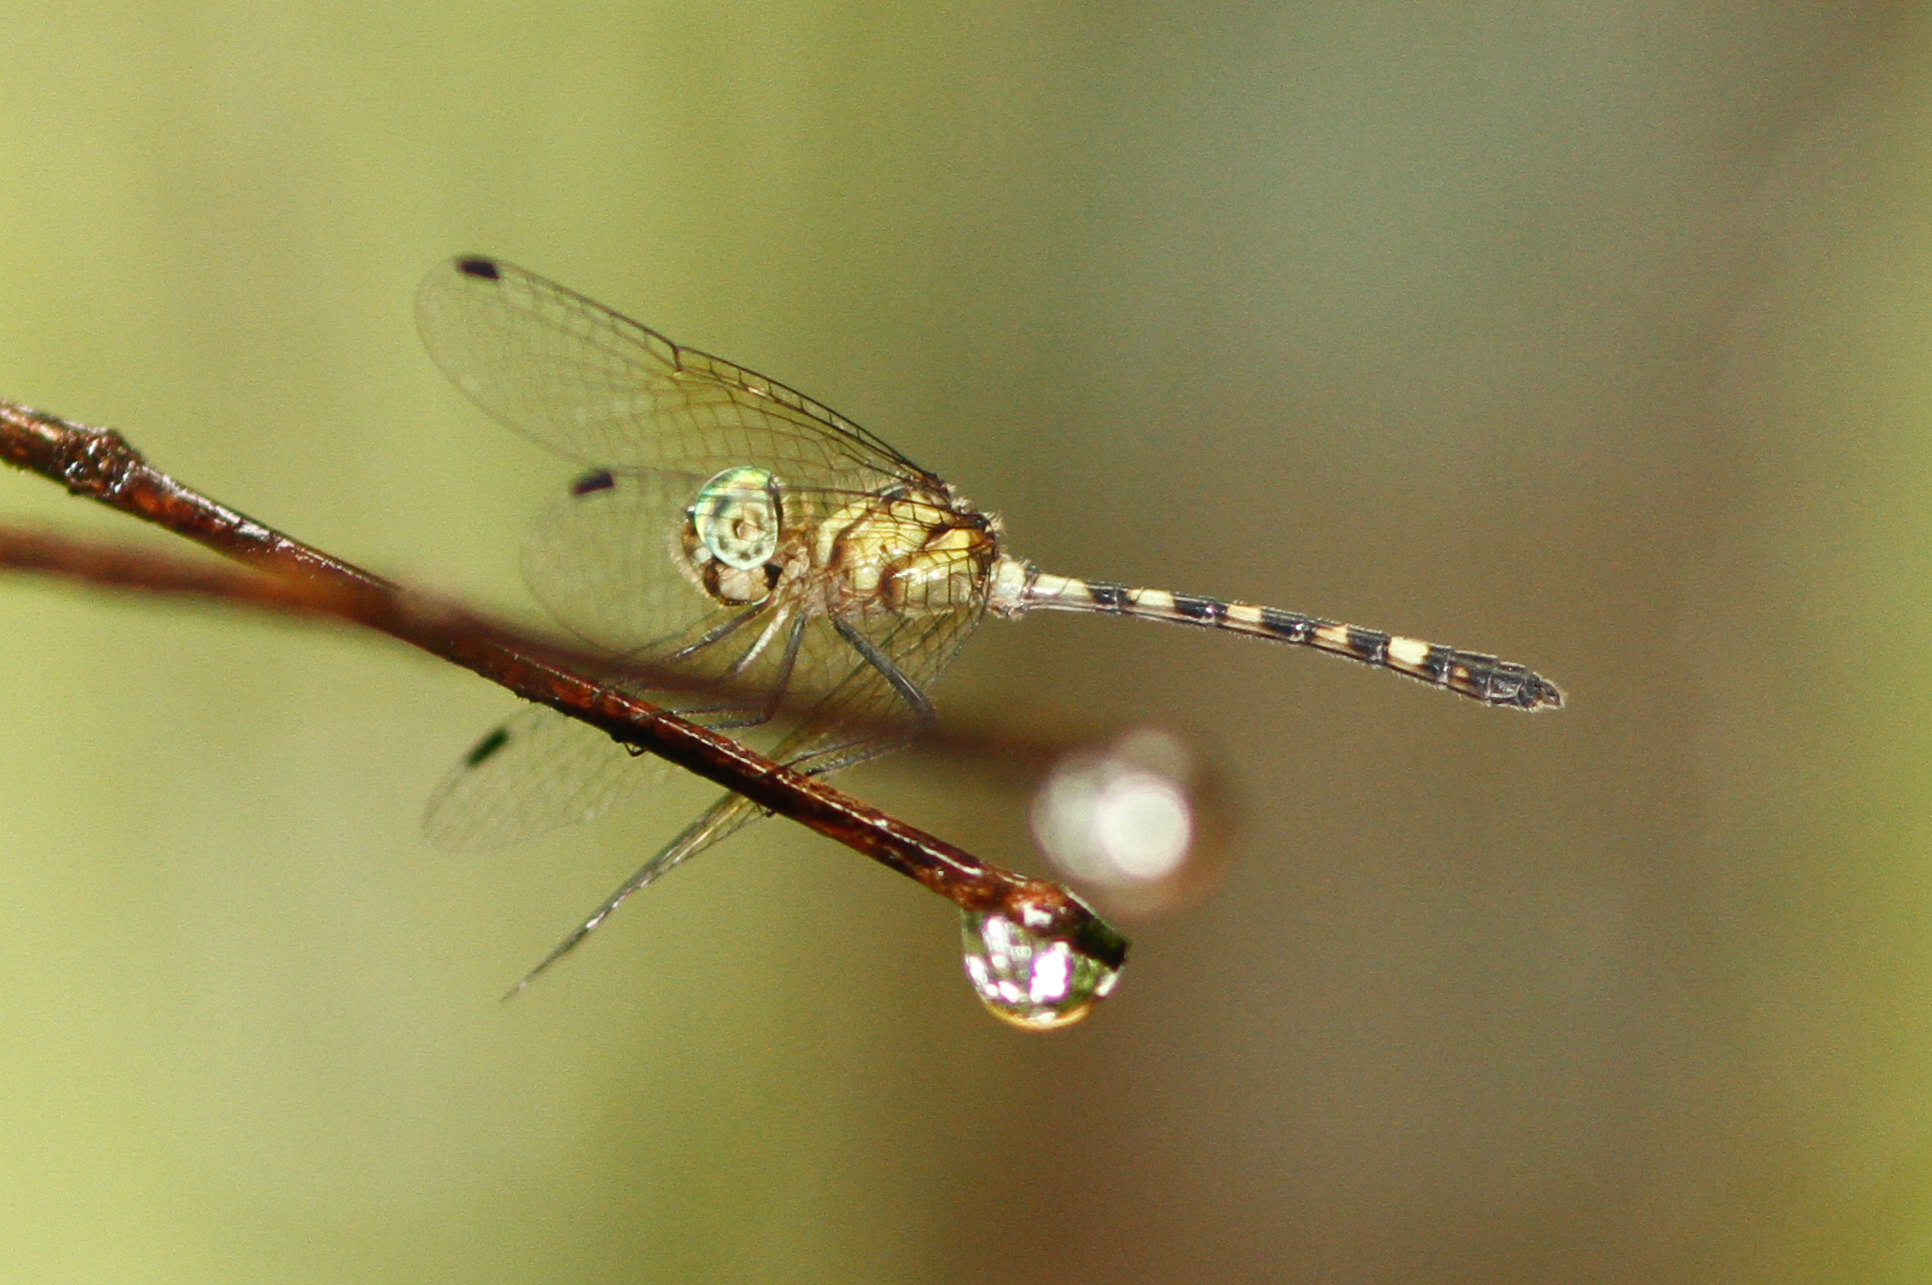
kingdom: Animalia
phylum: Arthropoda
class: Insecta
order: Odonata
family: Libellulidae
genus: Tetrathemis
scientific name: Tetrathemis irregularis
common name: Elf
